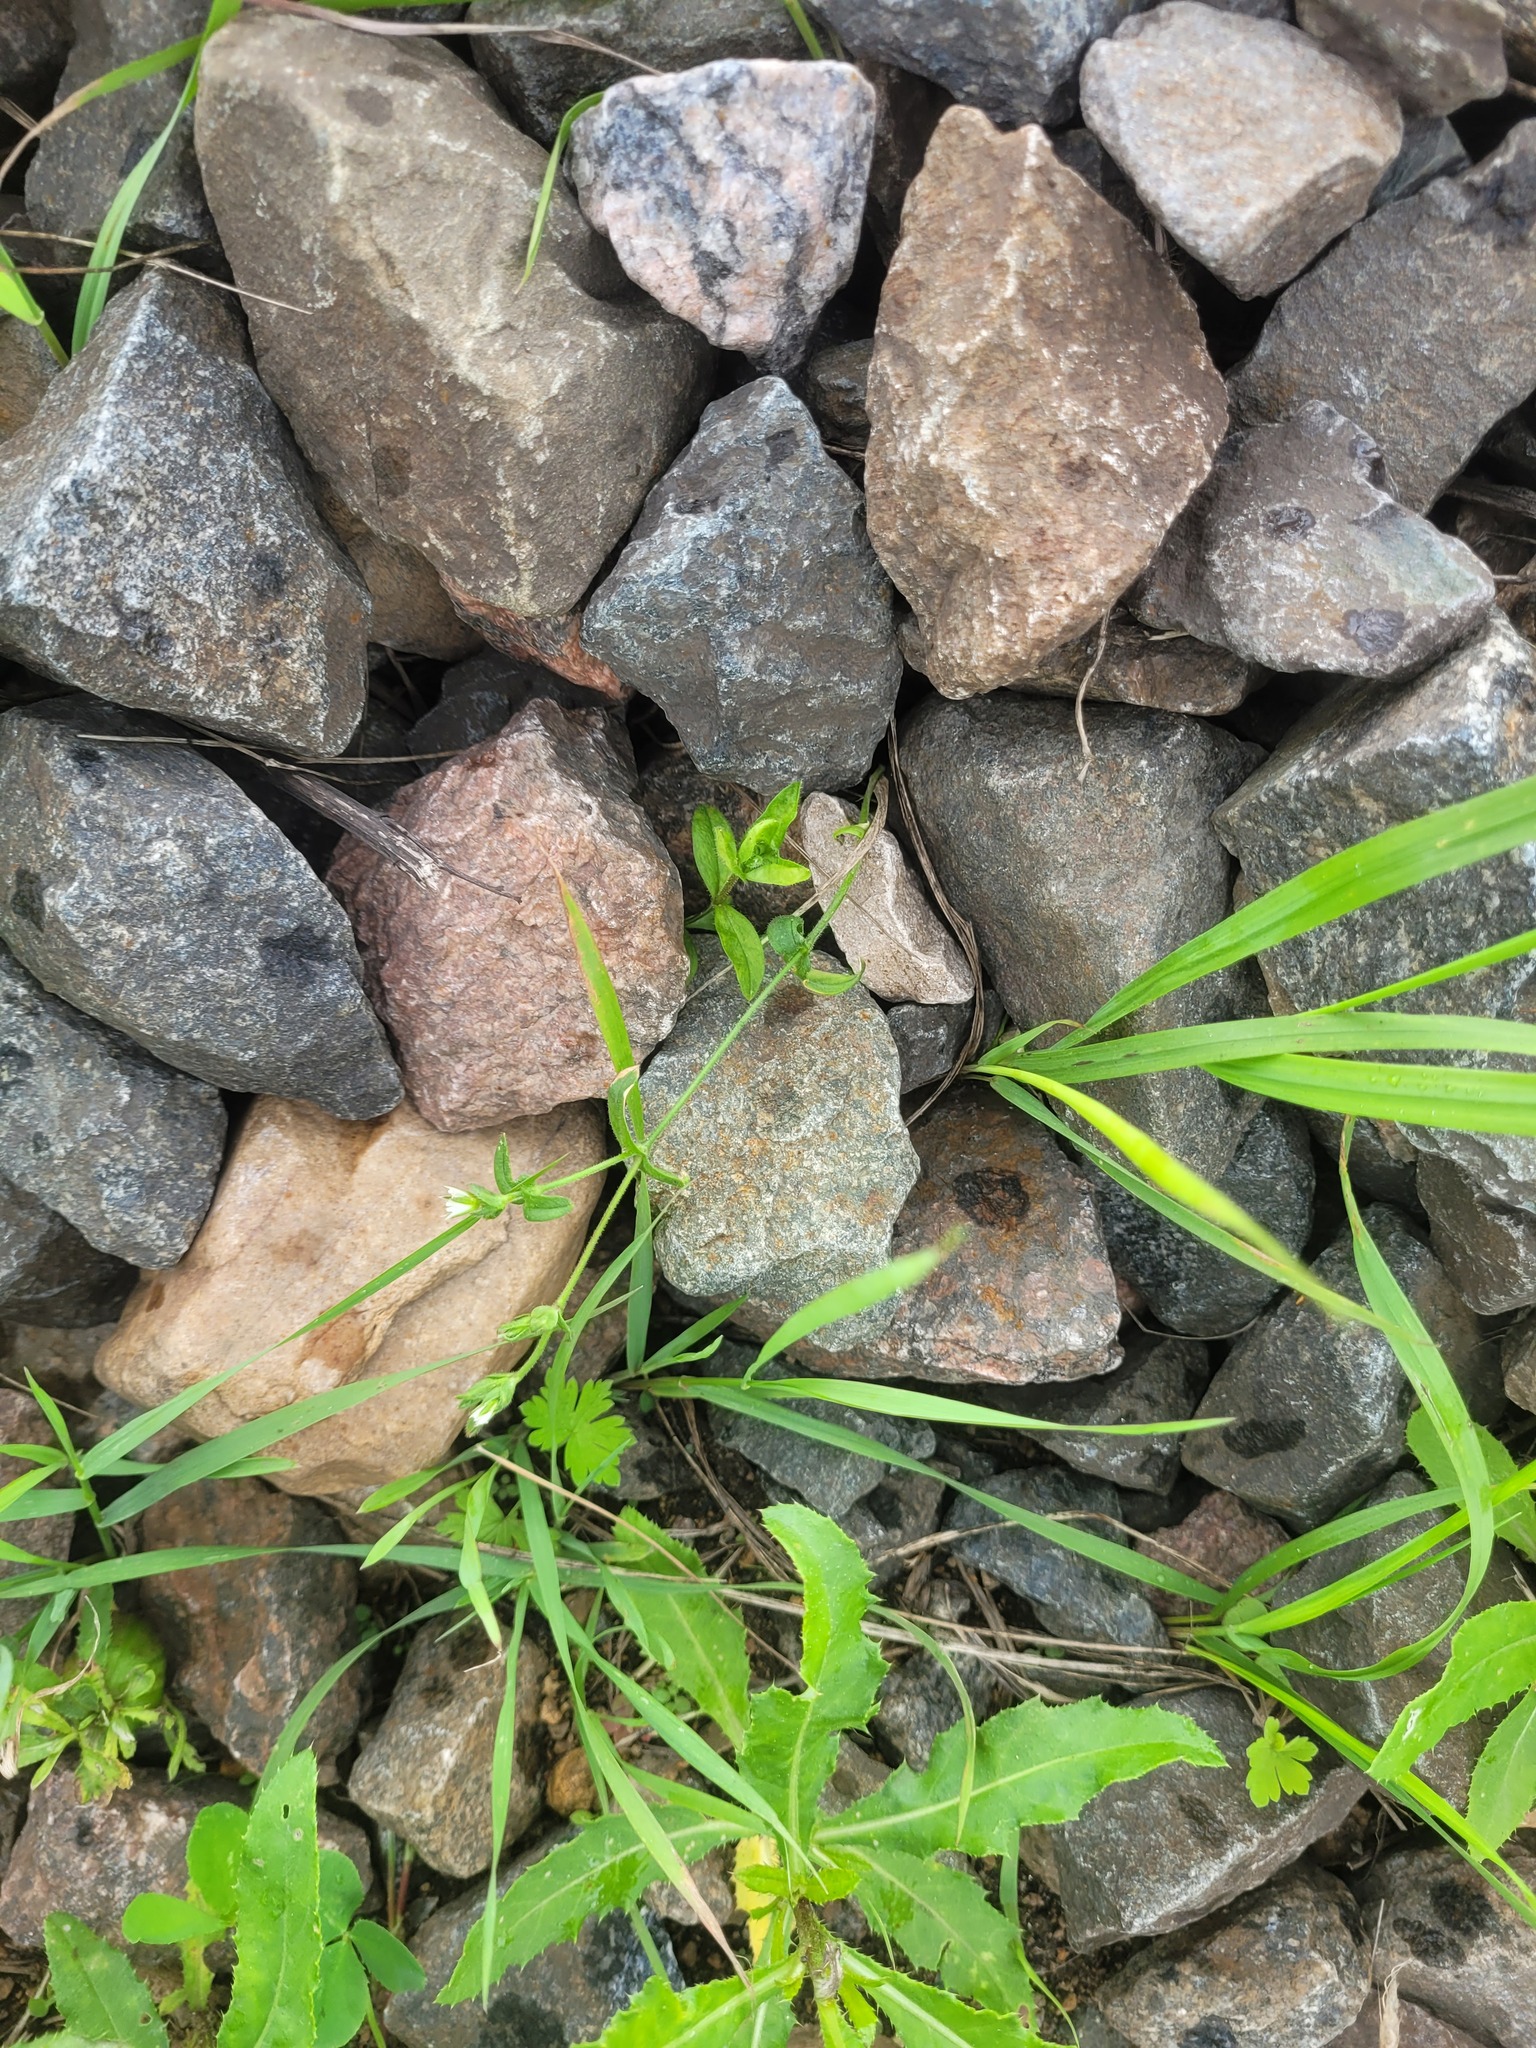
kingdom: Plantae
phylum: Tracheophyta
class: Magnoliopsida
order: Caryophyllales
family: Caryophyllaceae
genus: Cerastium
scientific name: Cerastium holosteoides
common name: Big chickweed
